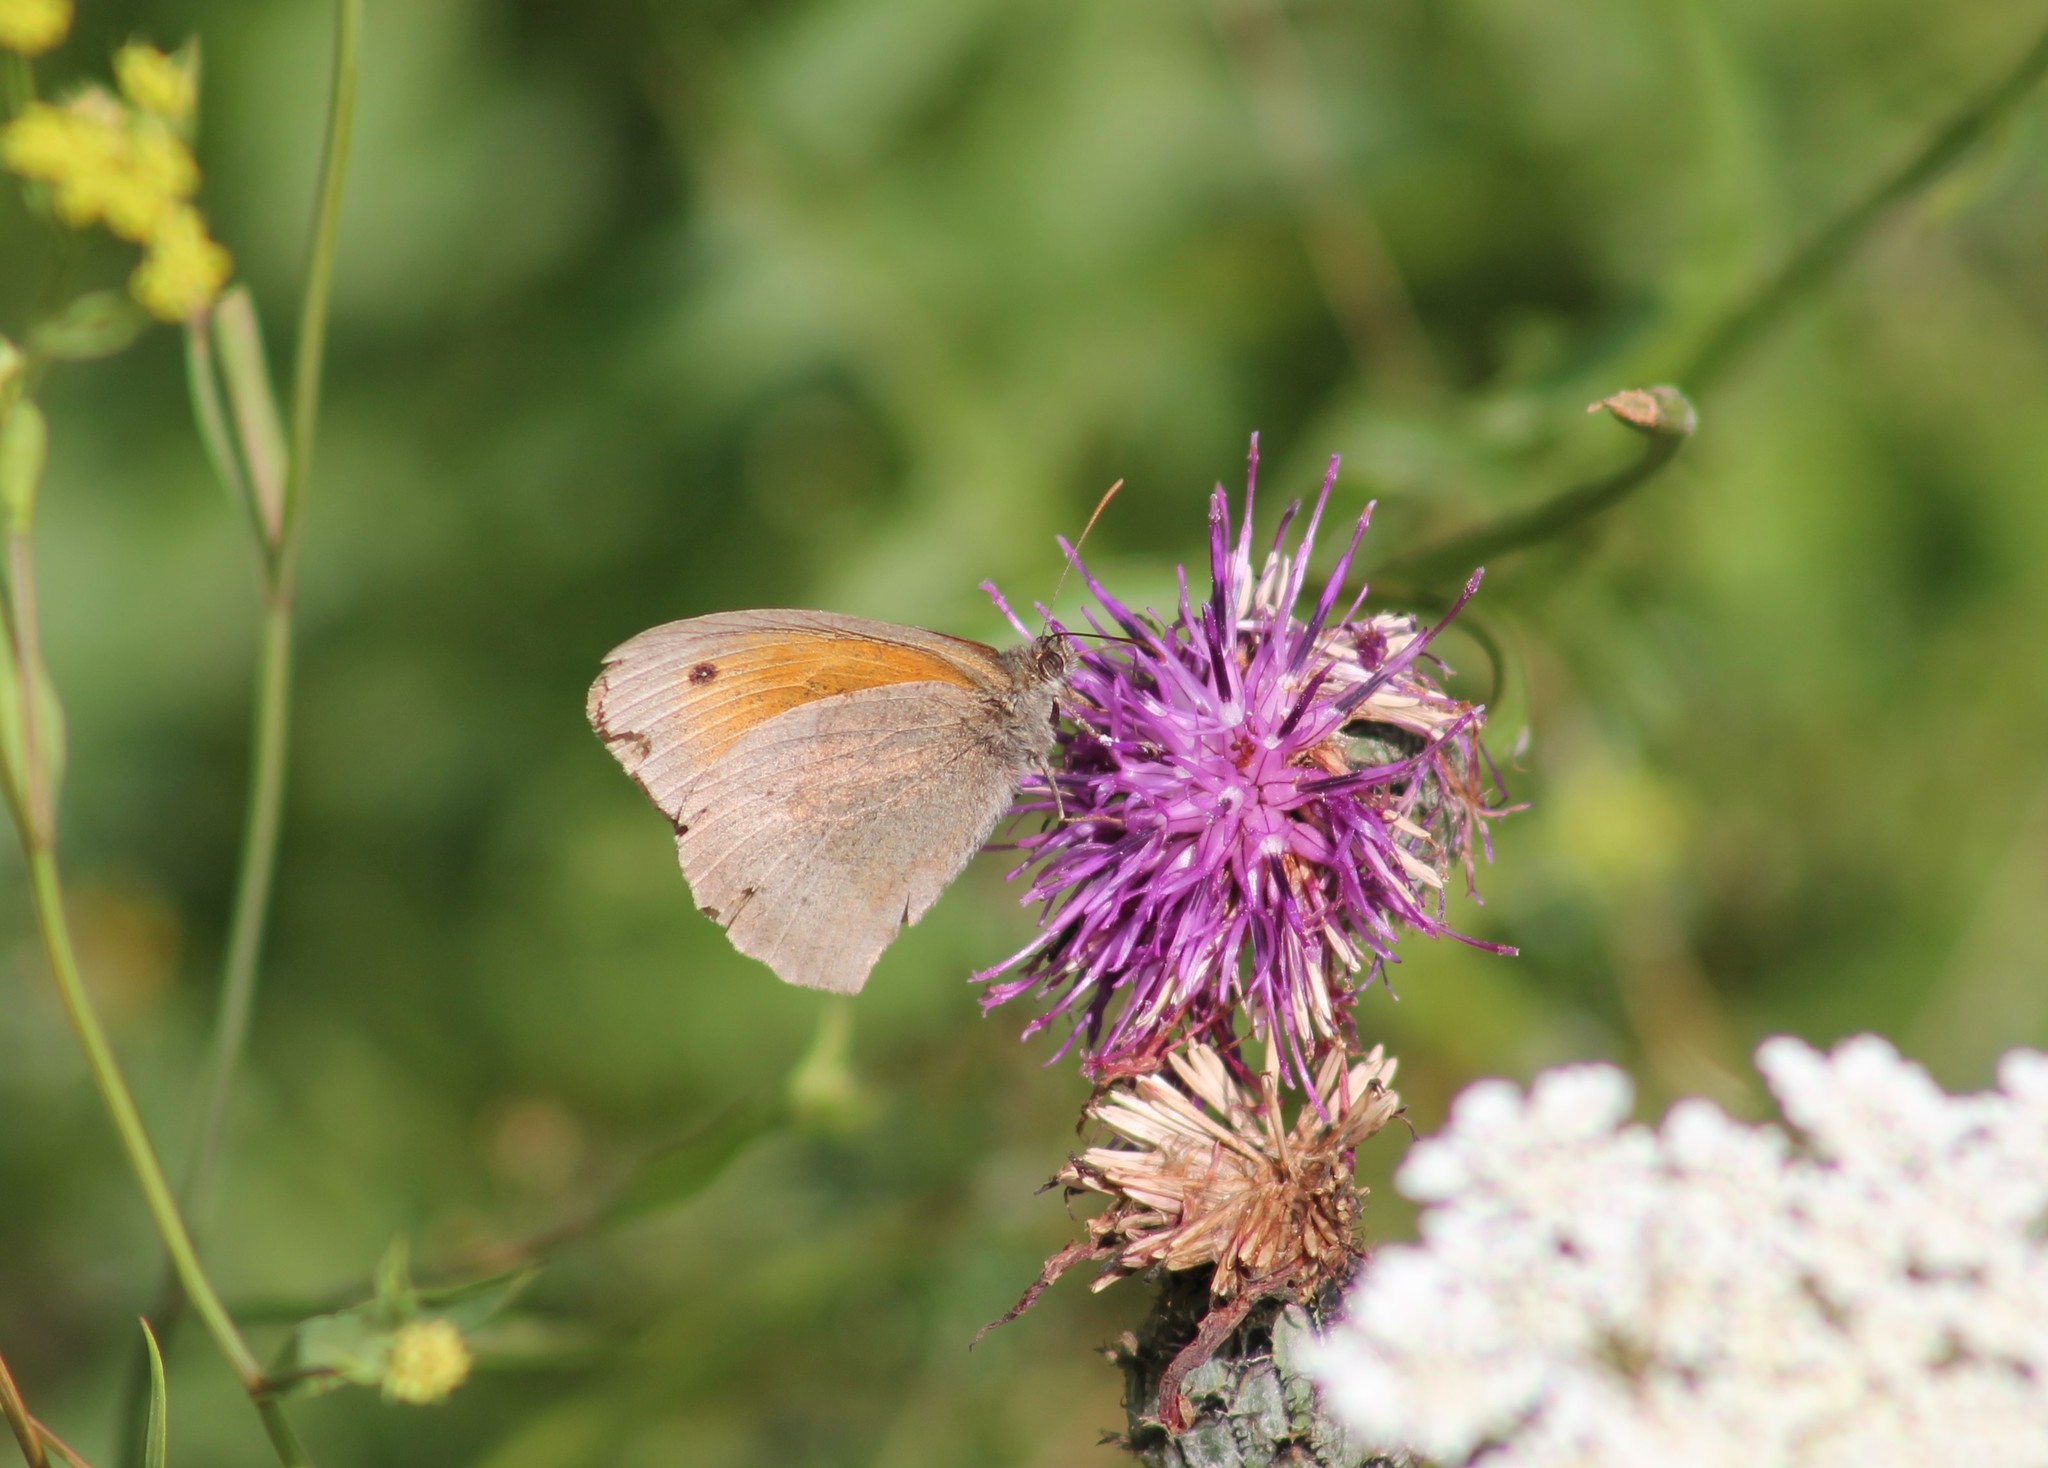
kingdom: Animalia
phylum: Arthropoda
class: Insecta
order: Lepidoptera
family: Nymphalidae
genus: Maniola
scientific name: Maniola jurtina
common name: Meadow brown
